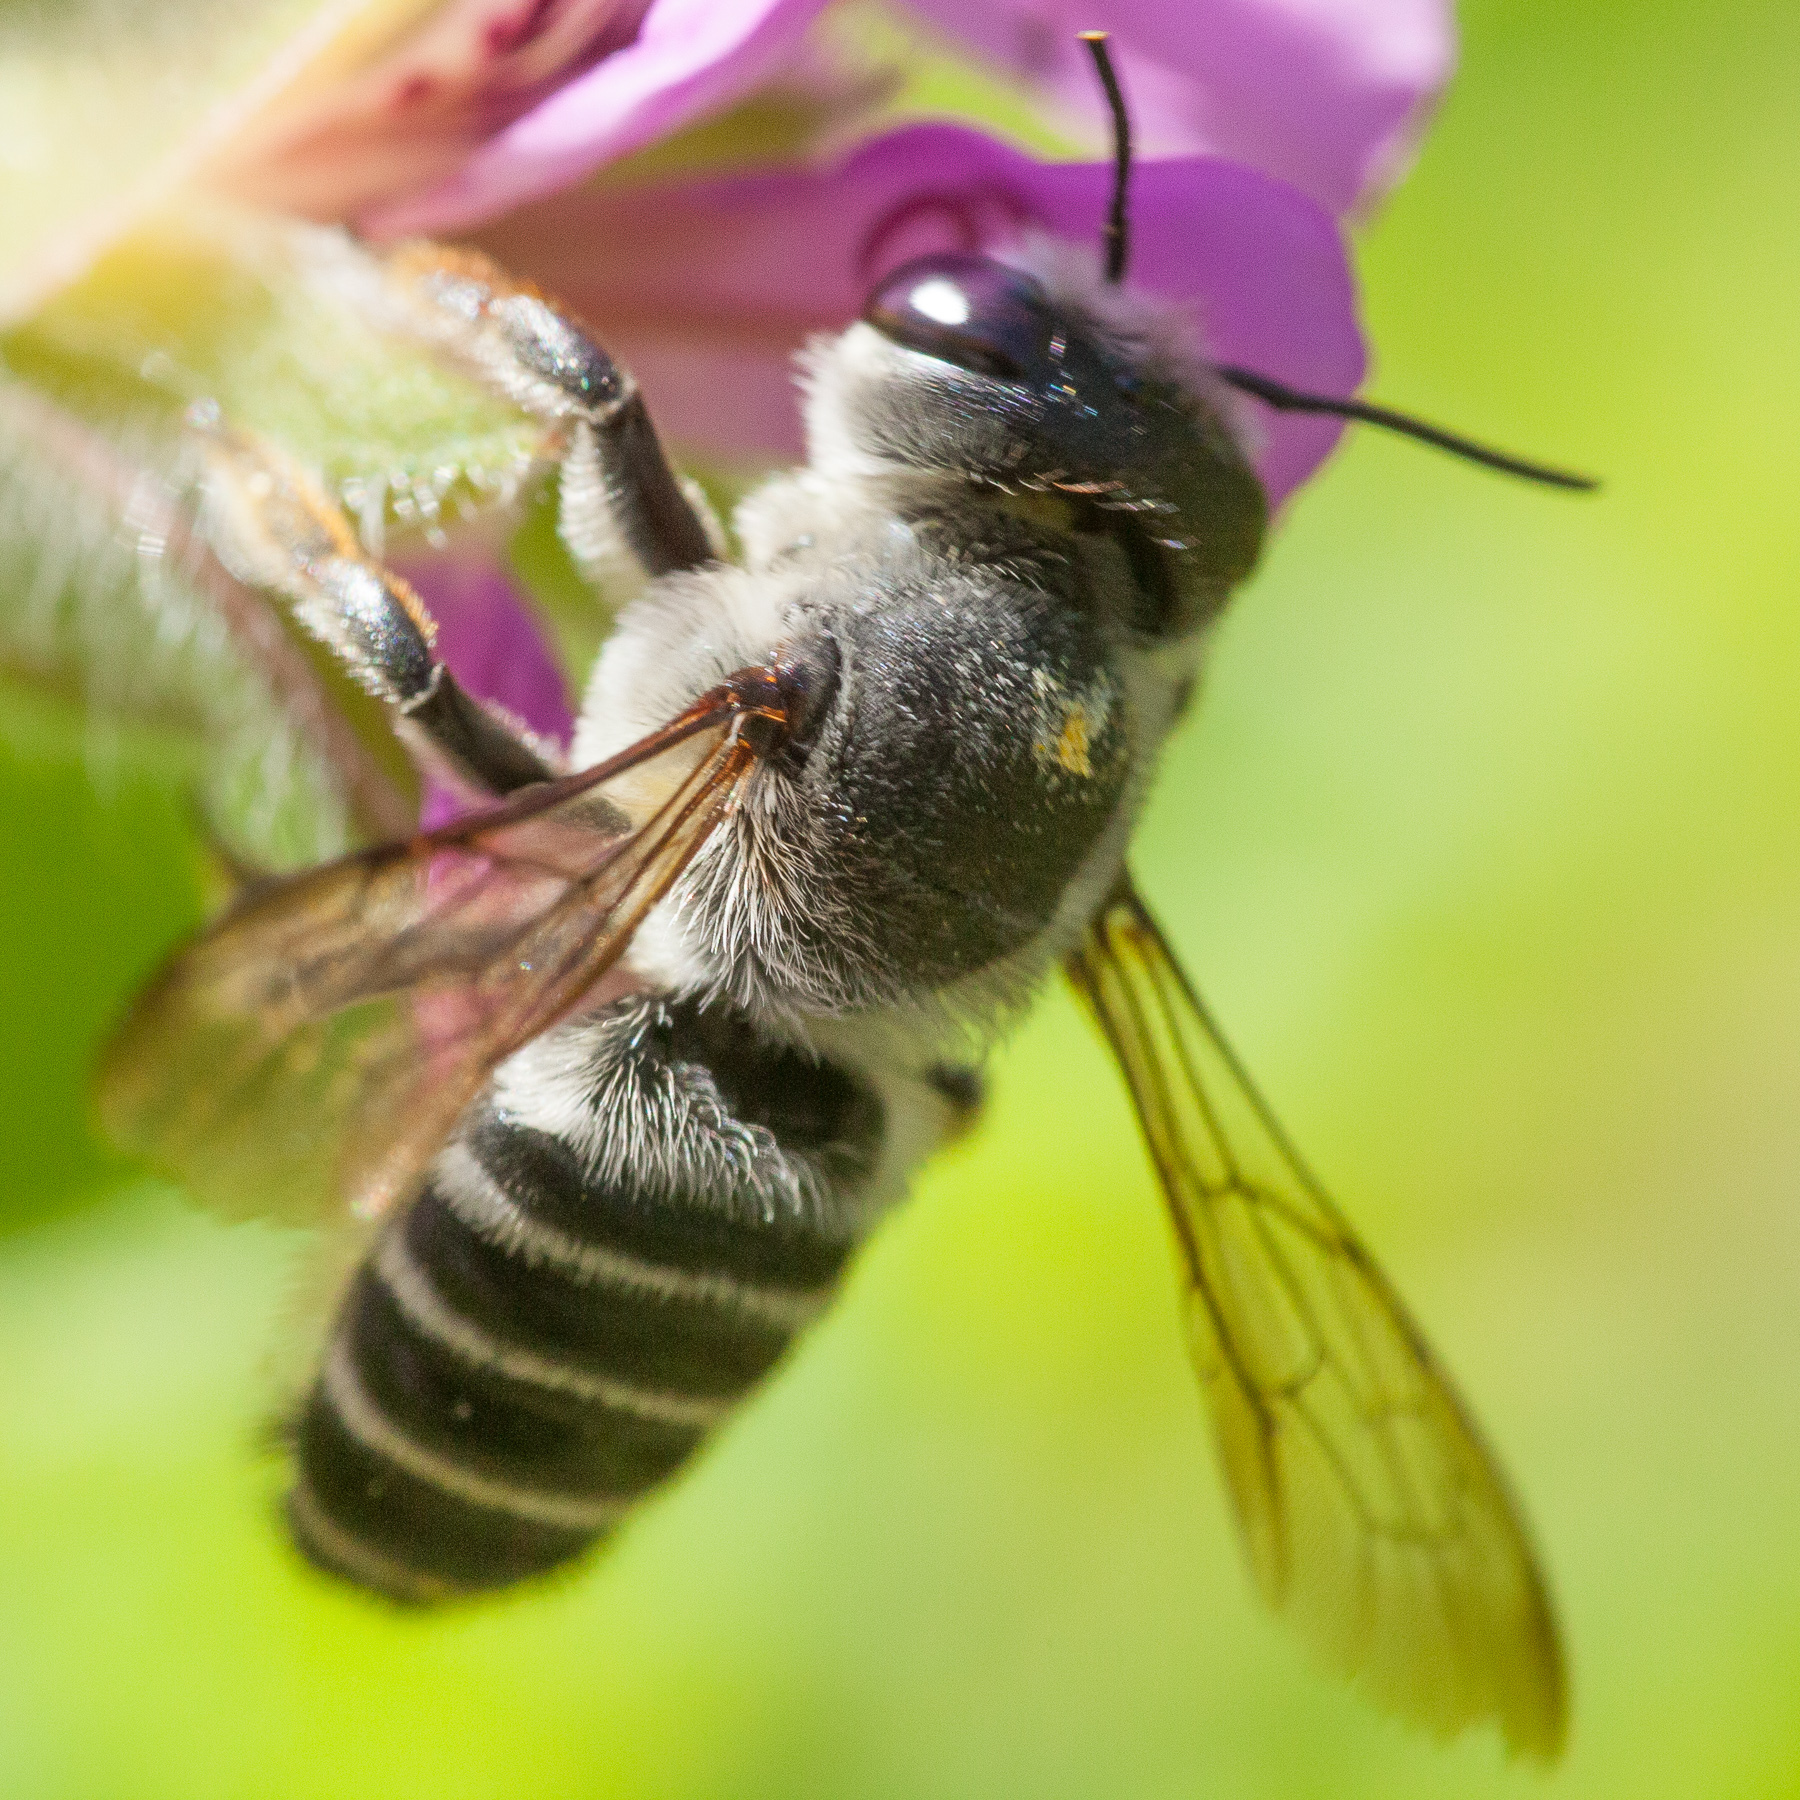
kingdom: Animalia
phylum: Arthropoda
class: Insecta
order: Hymenoptera
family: Megachilidae
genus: Megachile
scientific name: Megachile policaris
